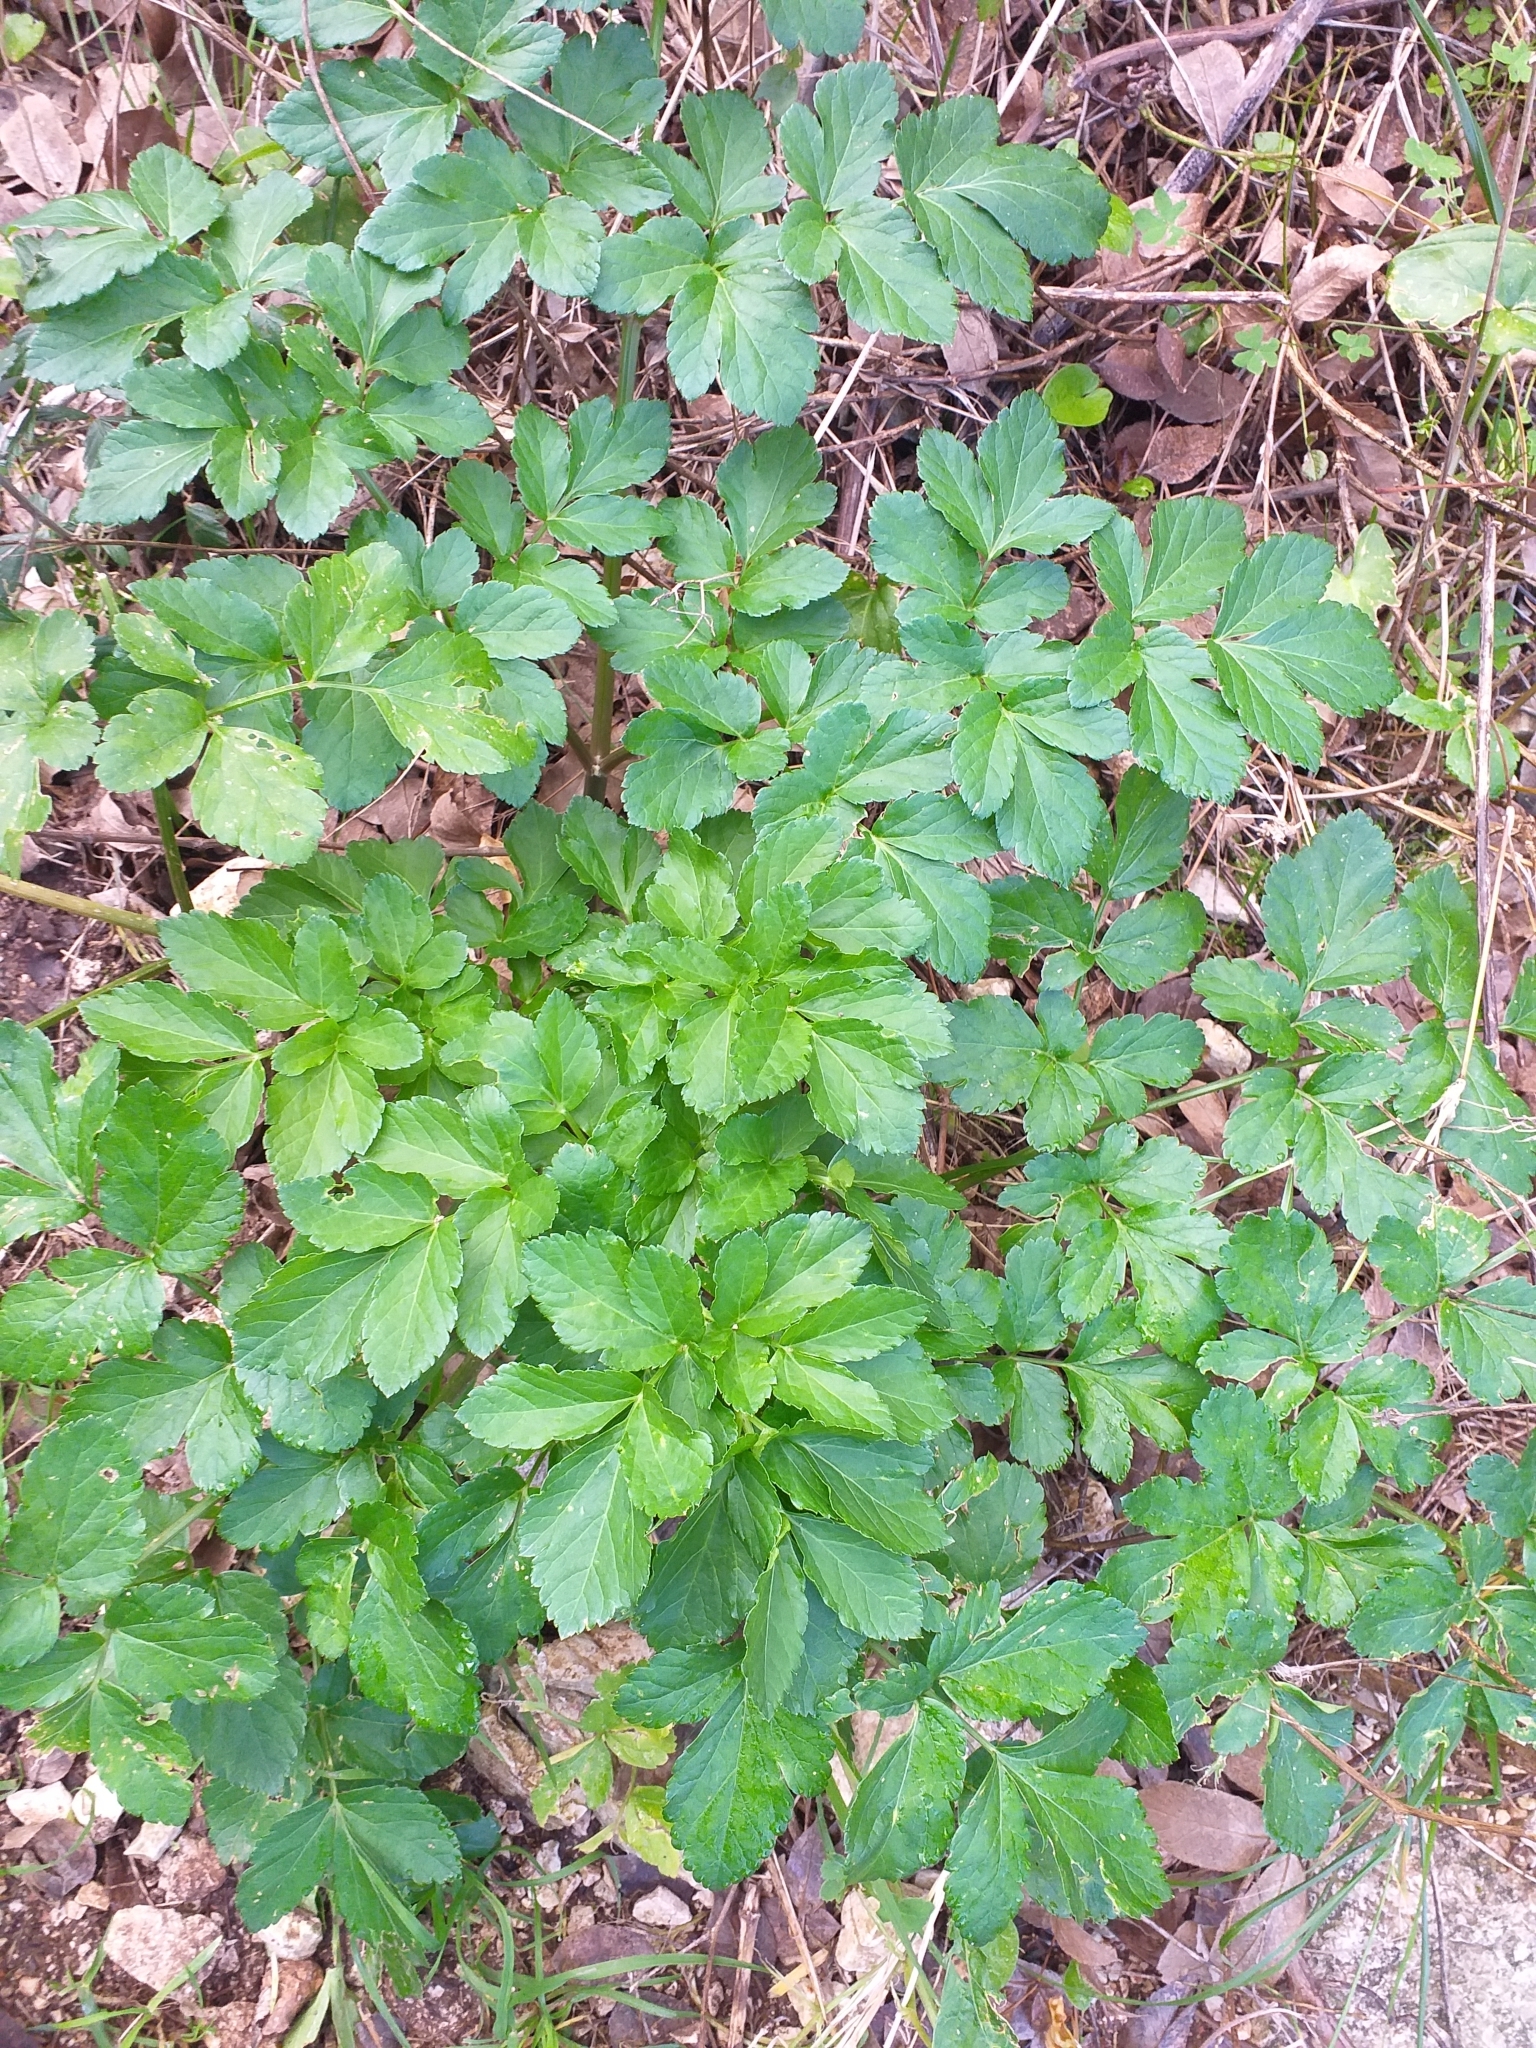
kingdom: Plantae
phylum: Tracheophyta
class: Magnoliopsida
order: Apiales
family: Apiaceae
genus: Smyrnium
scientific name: Smyrnium olusatrum
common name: Alexanders
